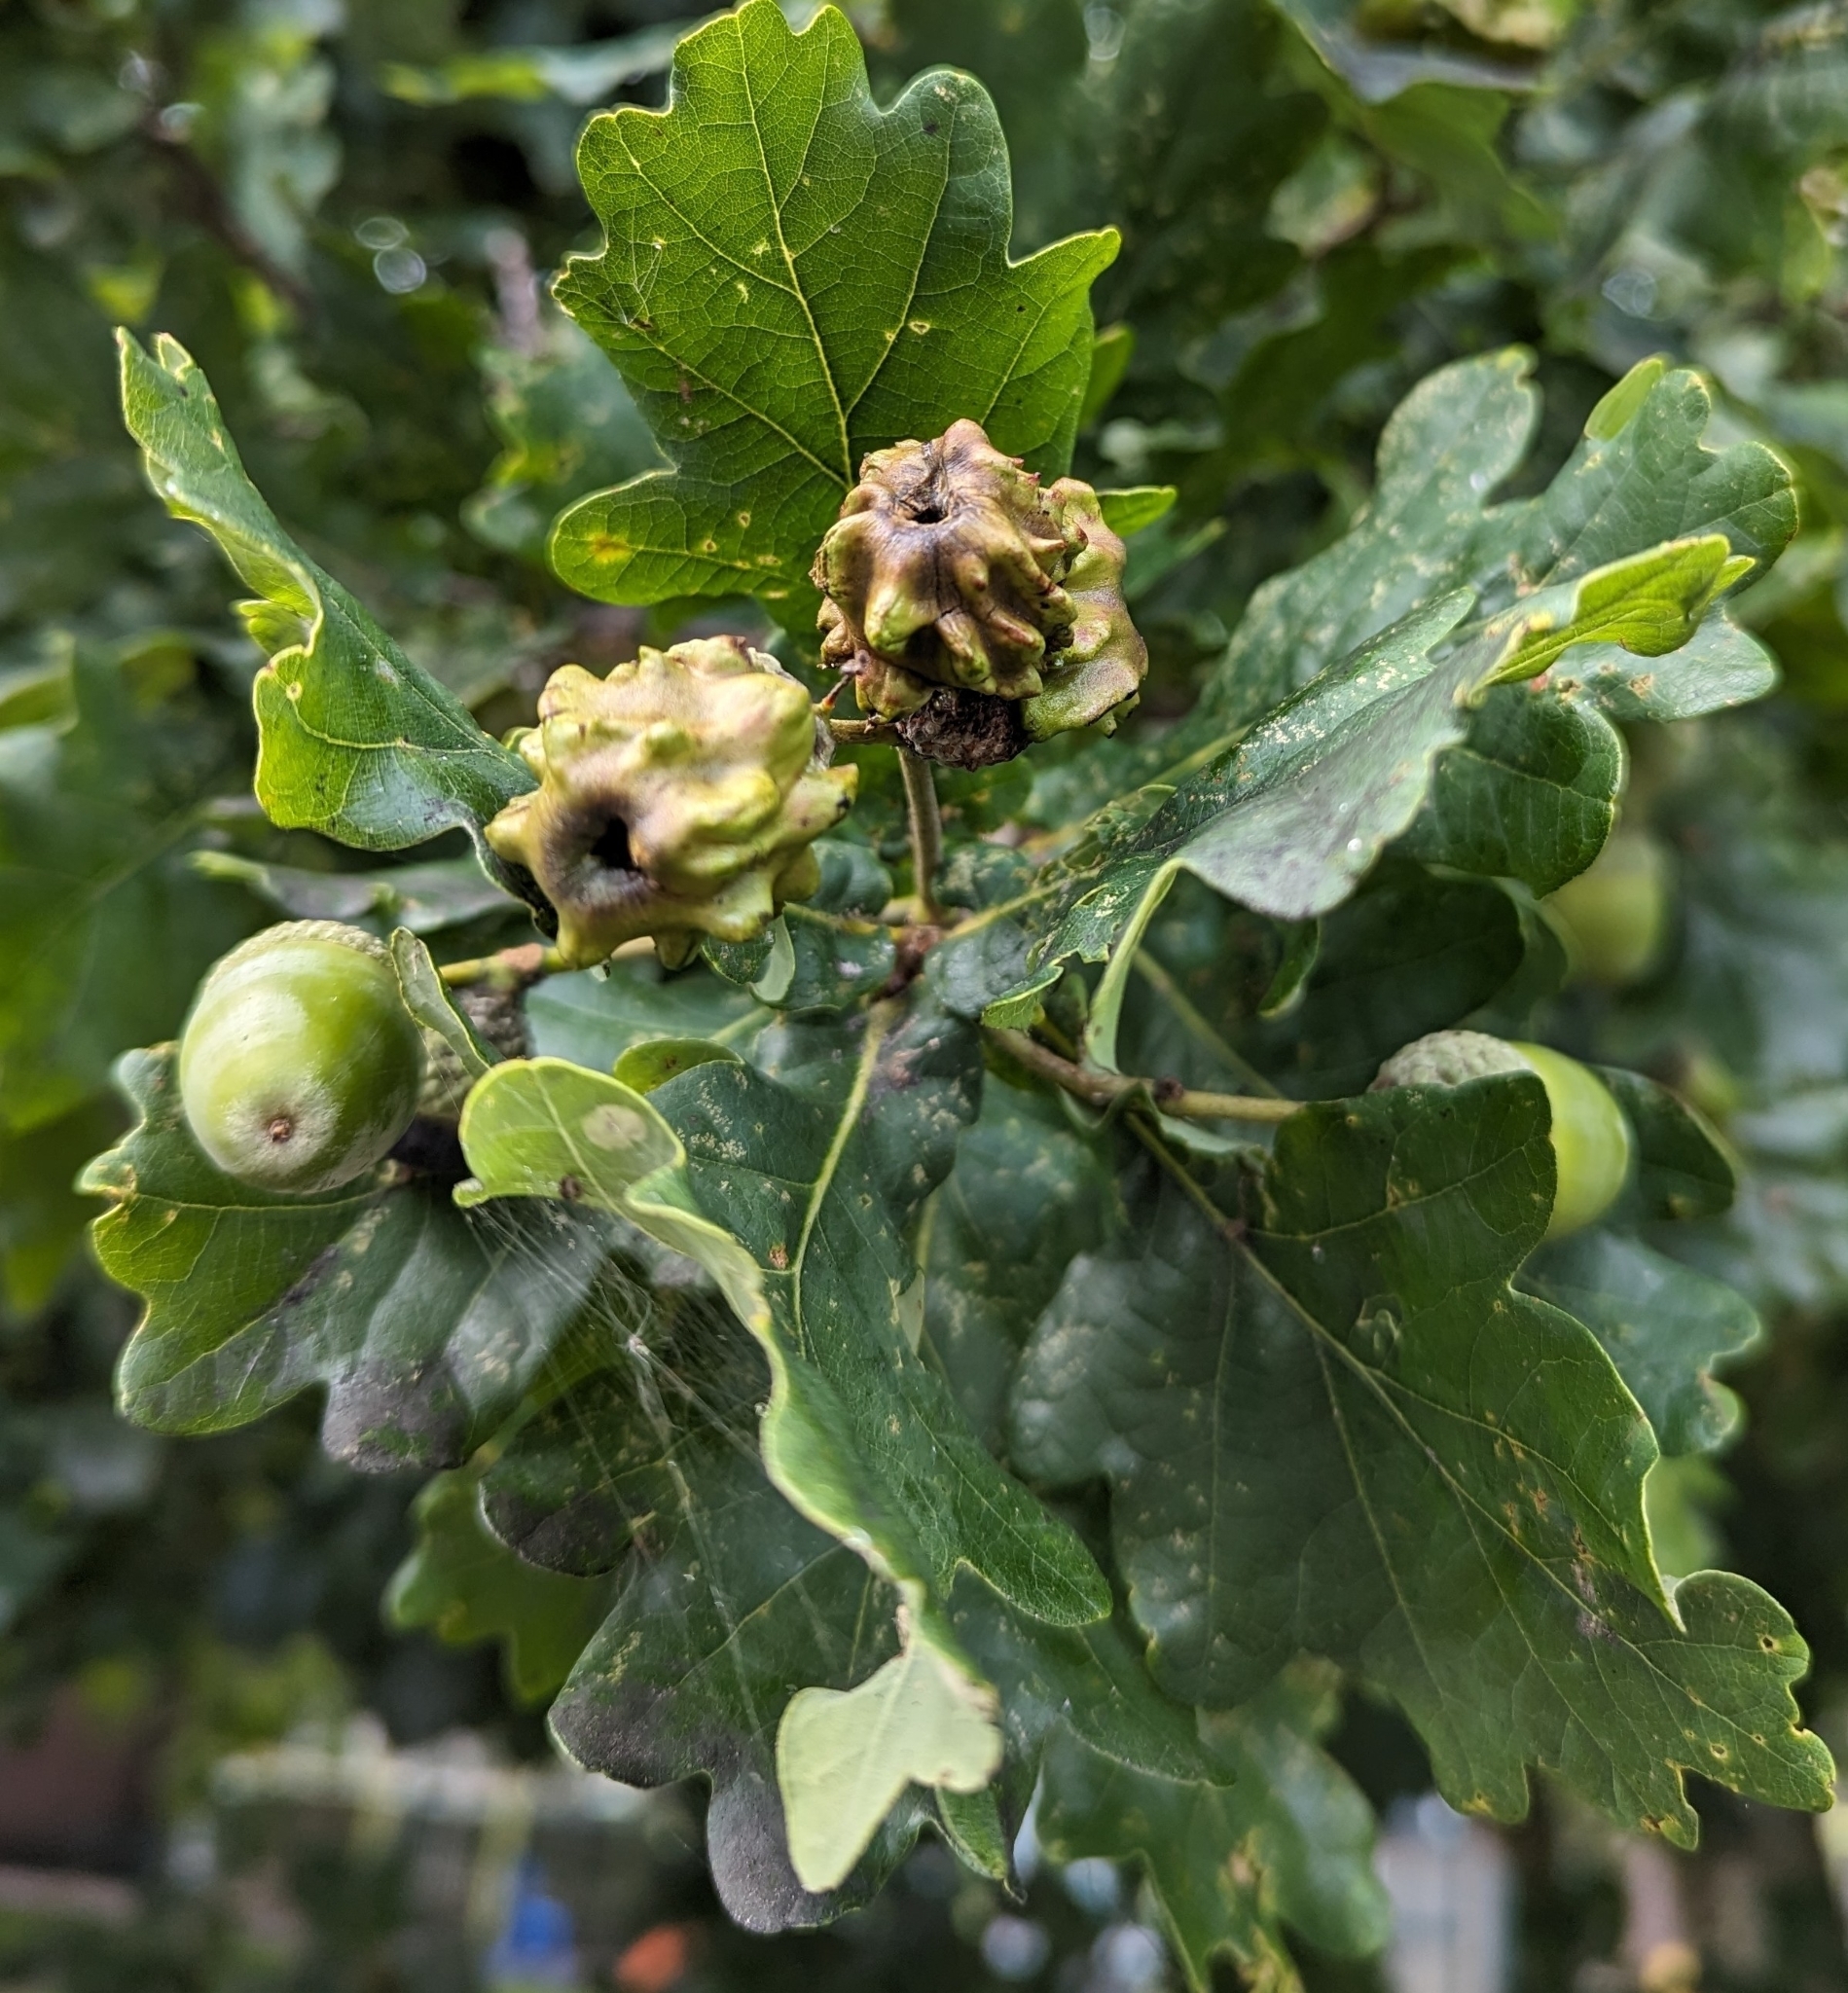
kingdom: Animalia
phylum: Arthropoda
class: Insecta
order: Hymenoptera
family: Cynipidae
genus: Andricus
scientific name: Andricus quercuscalicis
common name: Knopper gall
